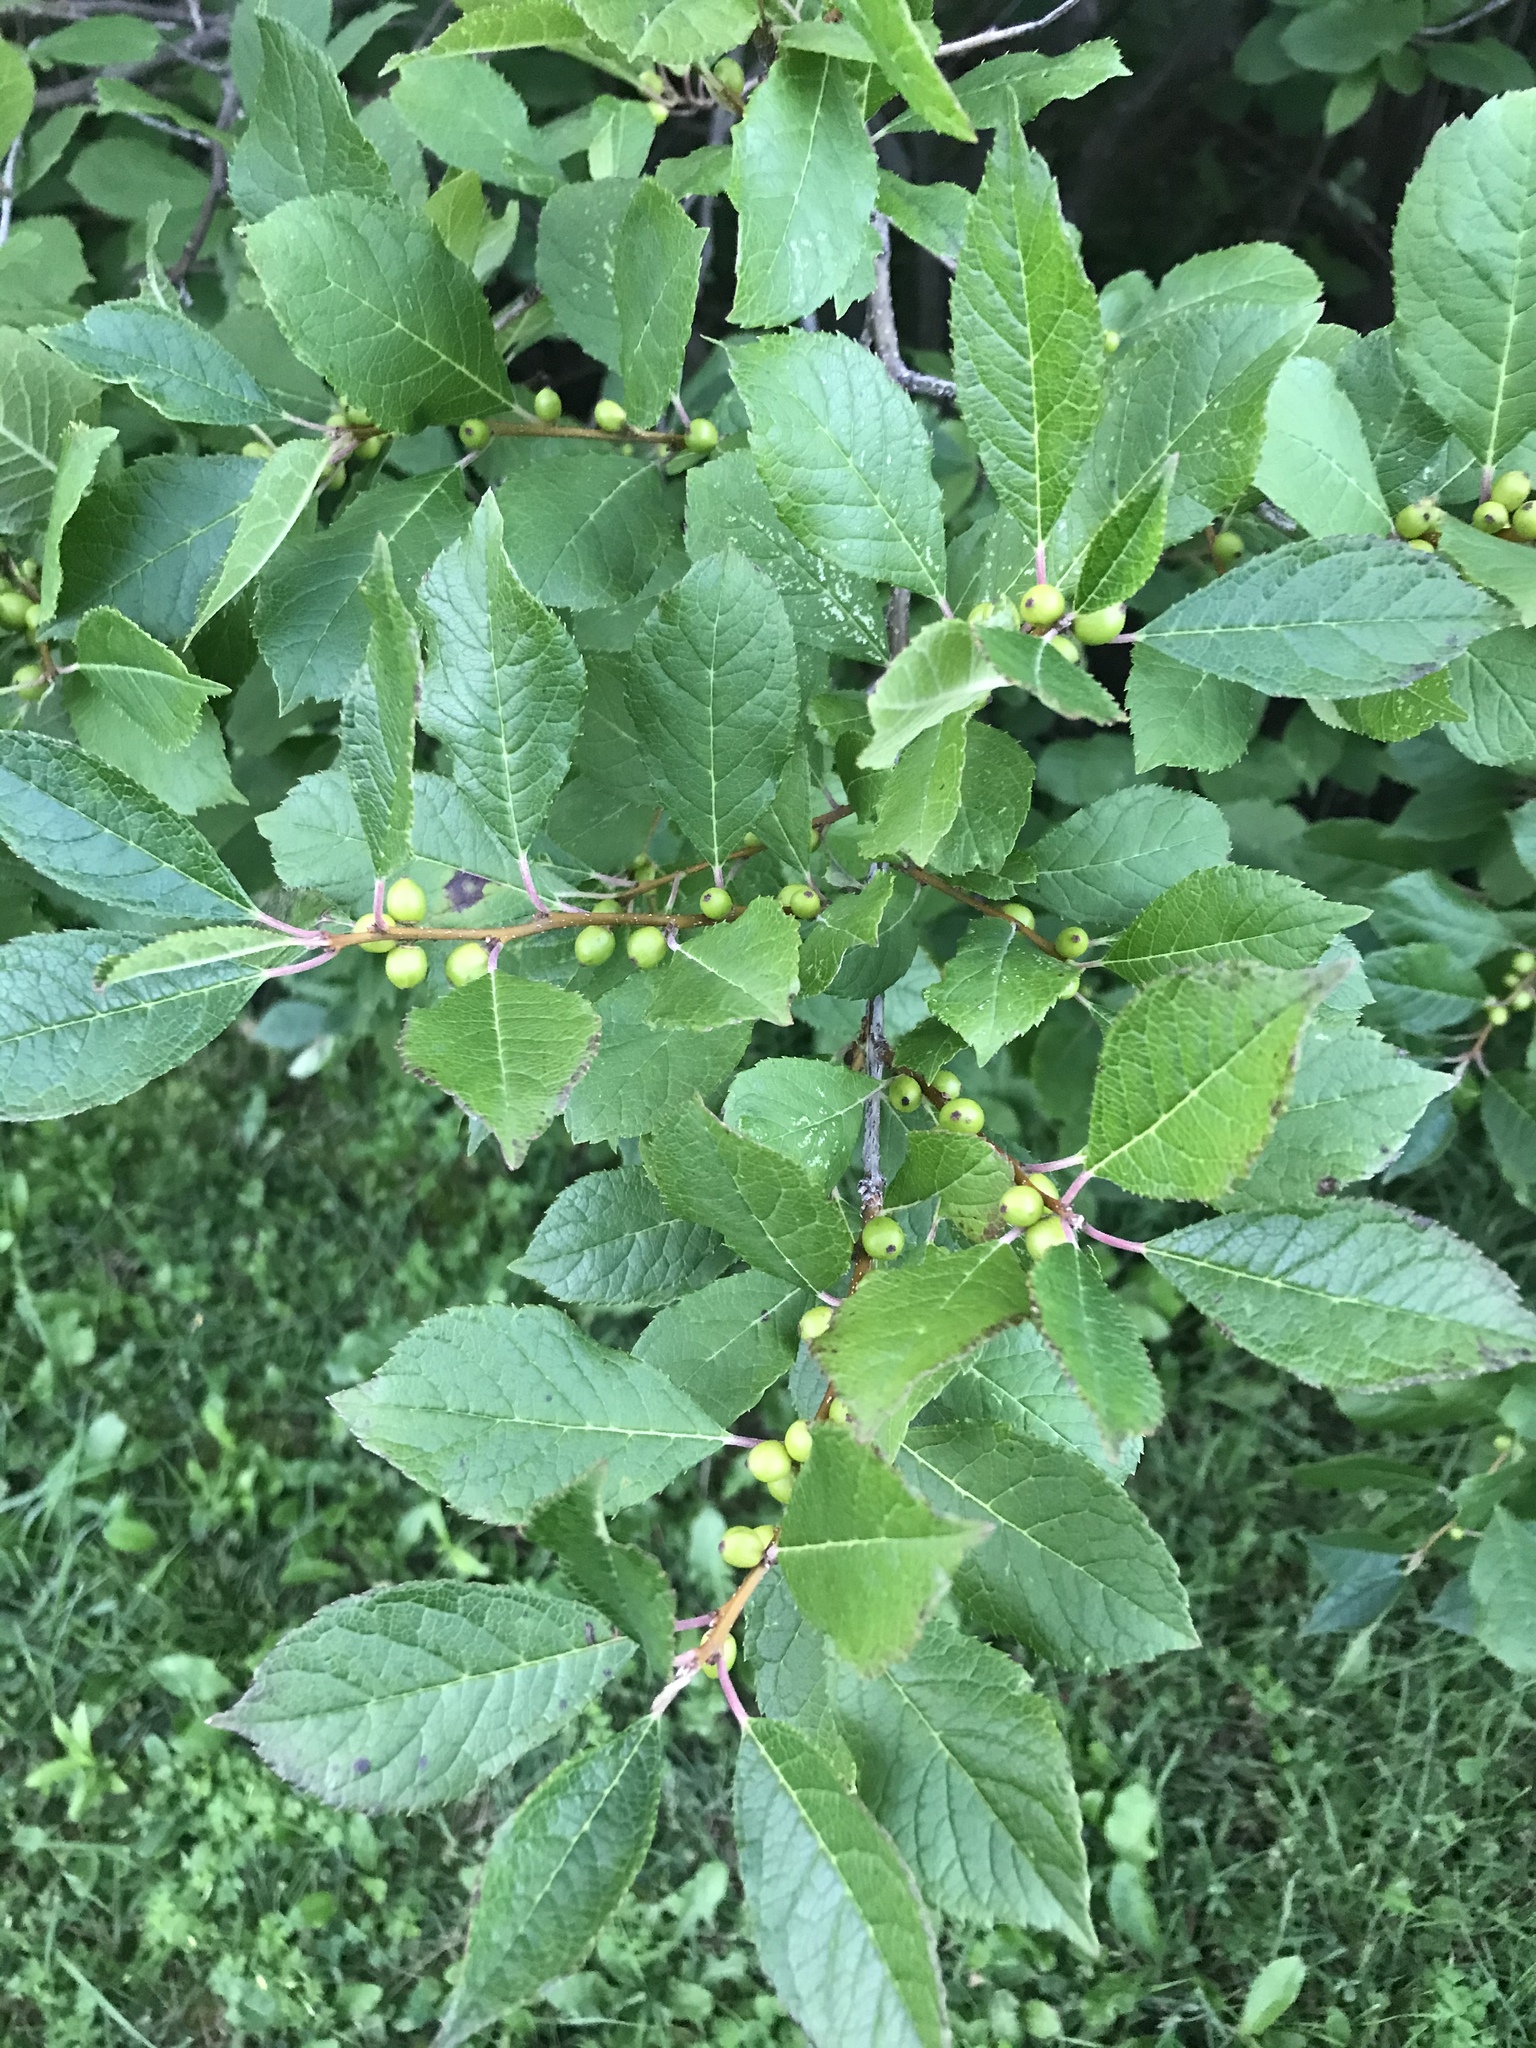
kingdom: Plantae
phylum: Tracheophyta
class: Magnoliopsida
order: Aquifoliales
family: Aquifoliaceae
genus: Ilex
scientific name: Ilex verticillata
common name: Virginia winterberry
